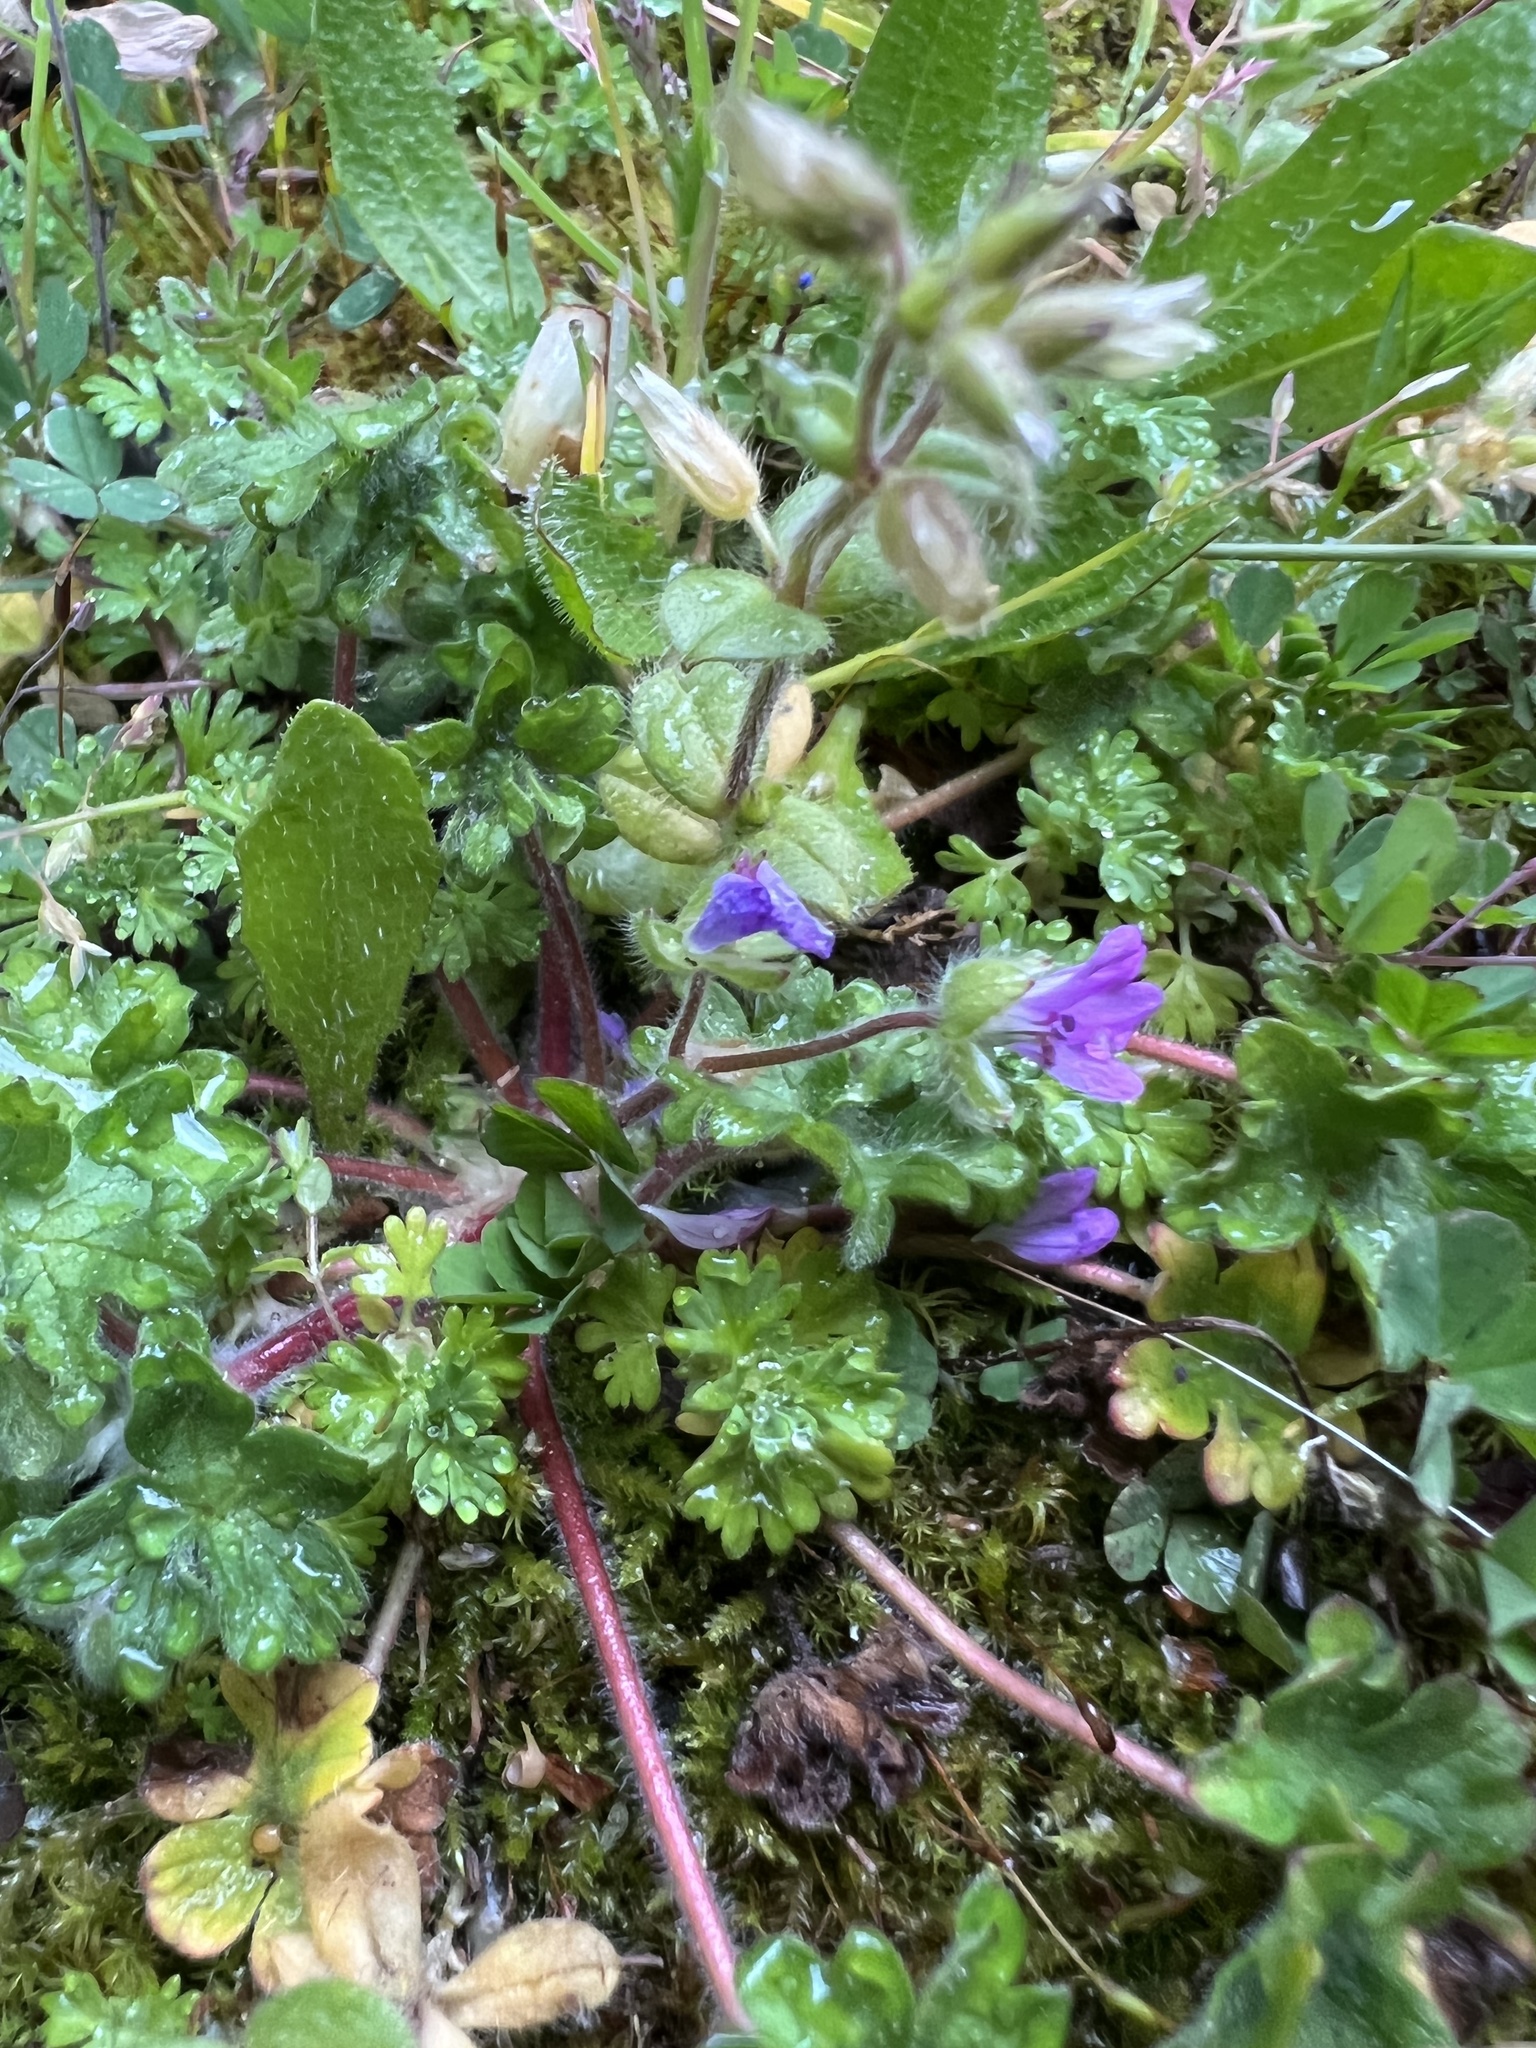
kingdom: Plantae
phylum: Tracheophyta
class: Magnoliopsida
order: Geraniales
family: Geraniaceae
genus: Geranium
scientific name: Geranium molle
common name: Dove's-foot crane's-bill
